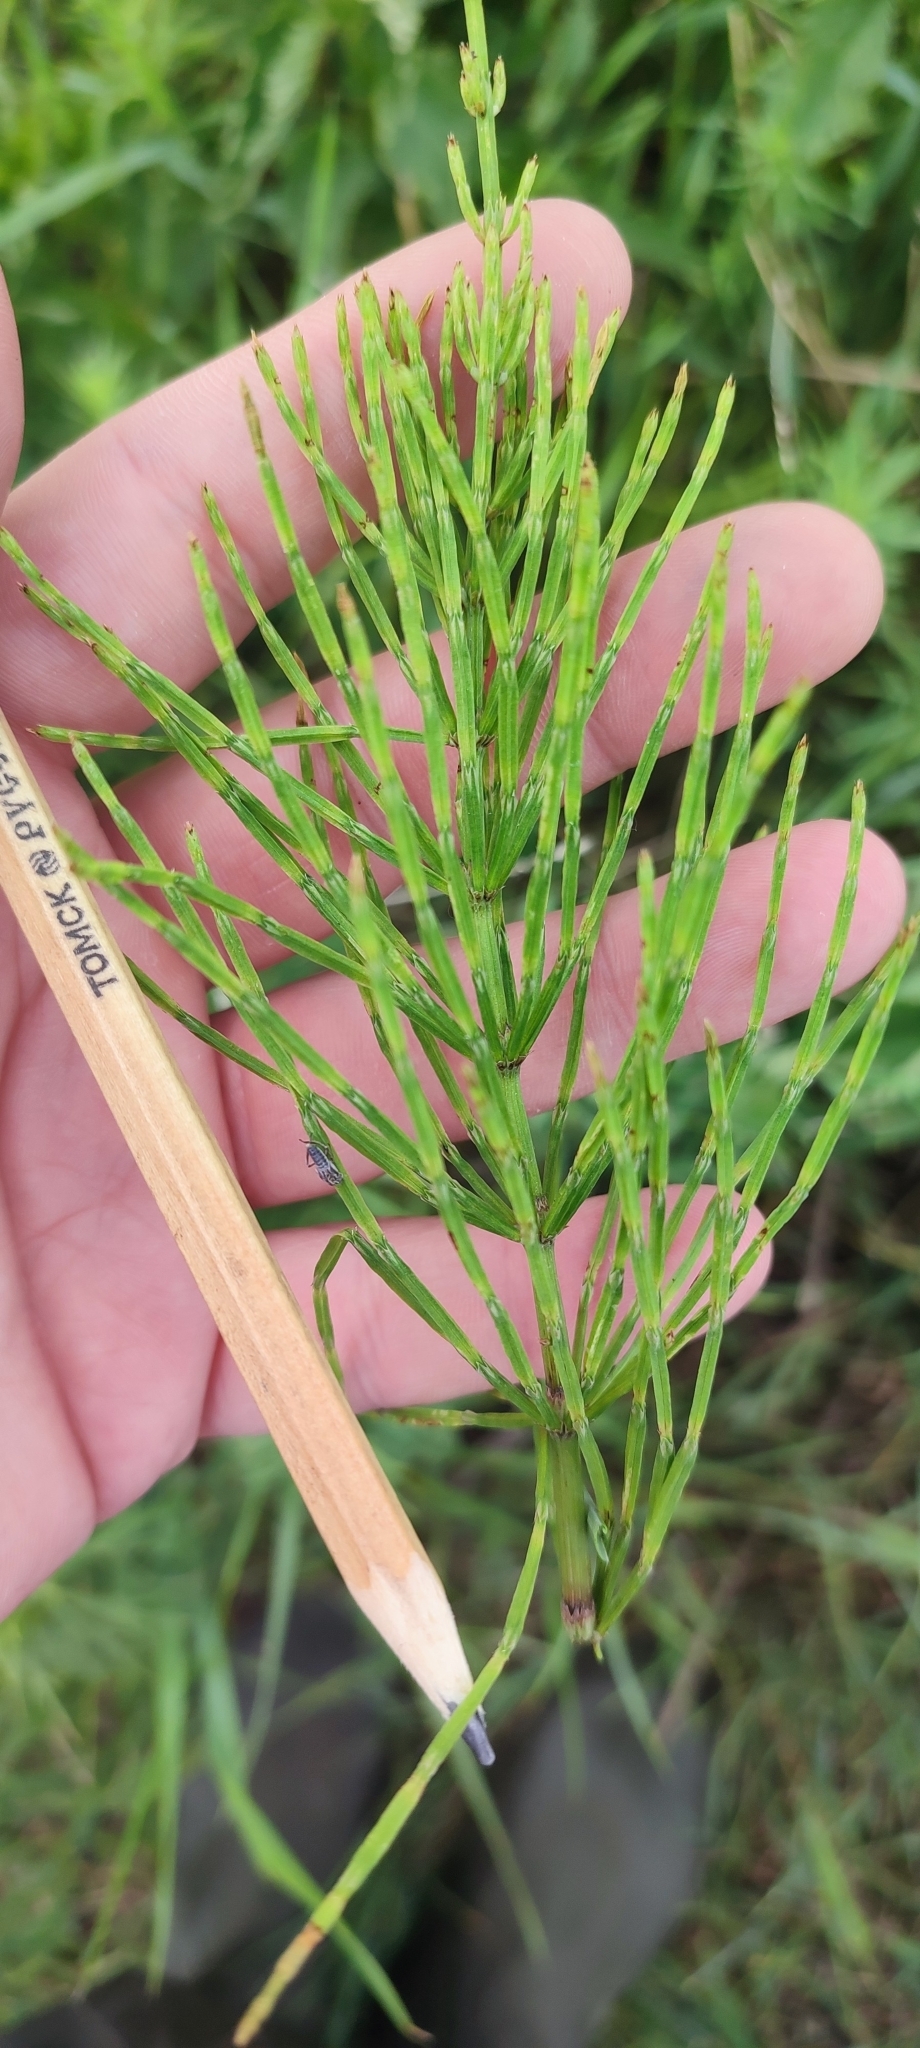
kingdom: Plantae
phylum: Tracheophyta
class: Polypodiopsida
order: Equisetales
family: Equisetaceae
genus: Equisetum
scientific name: Equisetum arvense
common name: Field horsetail
